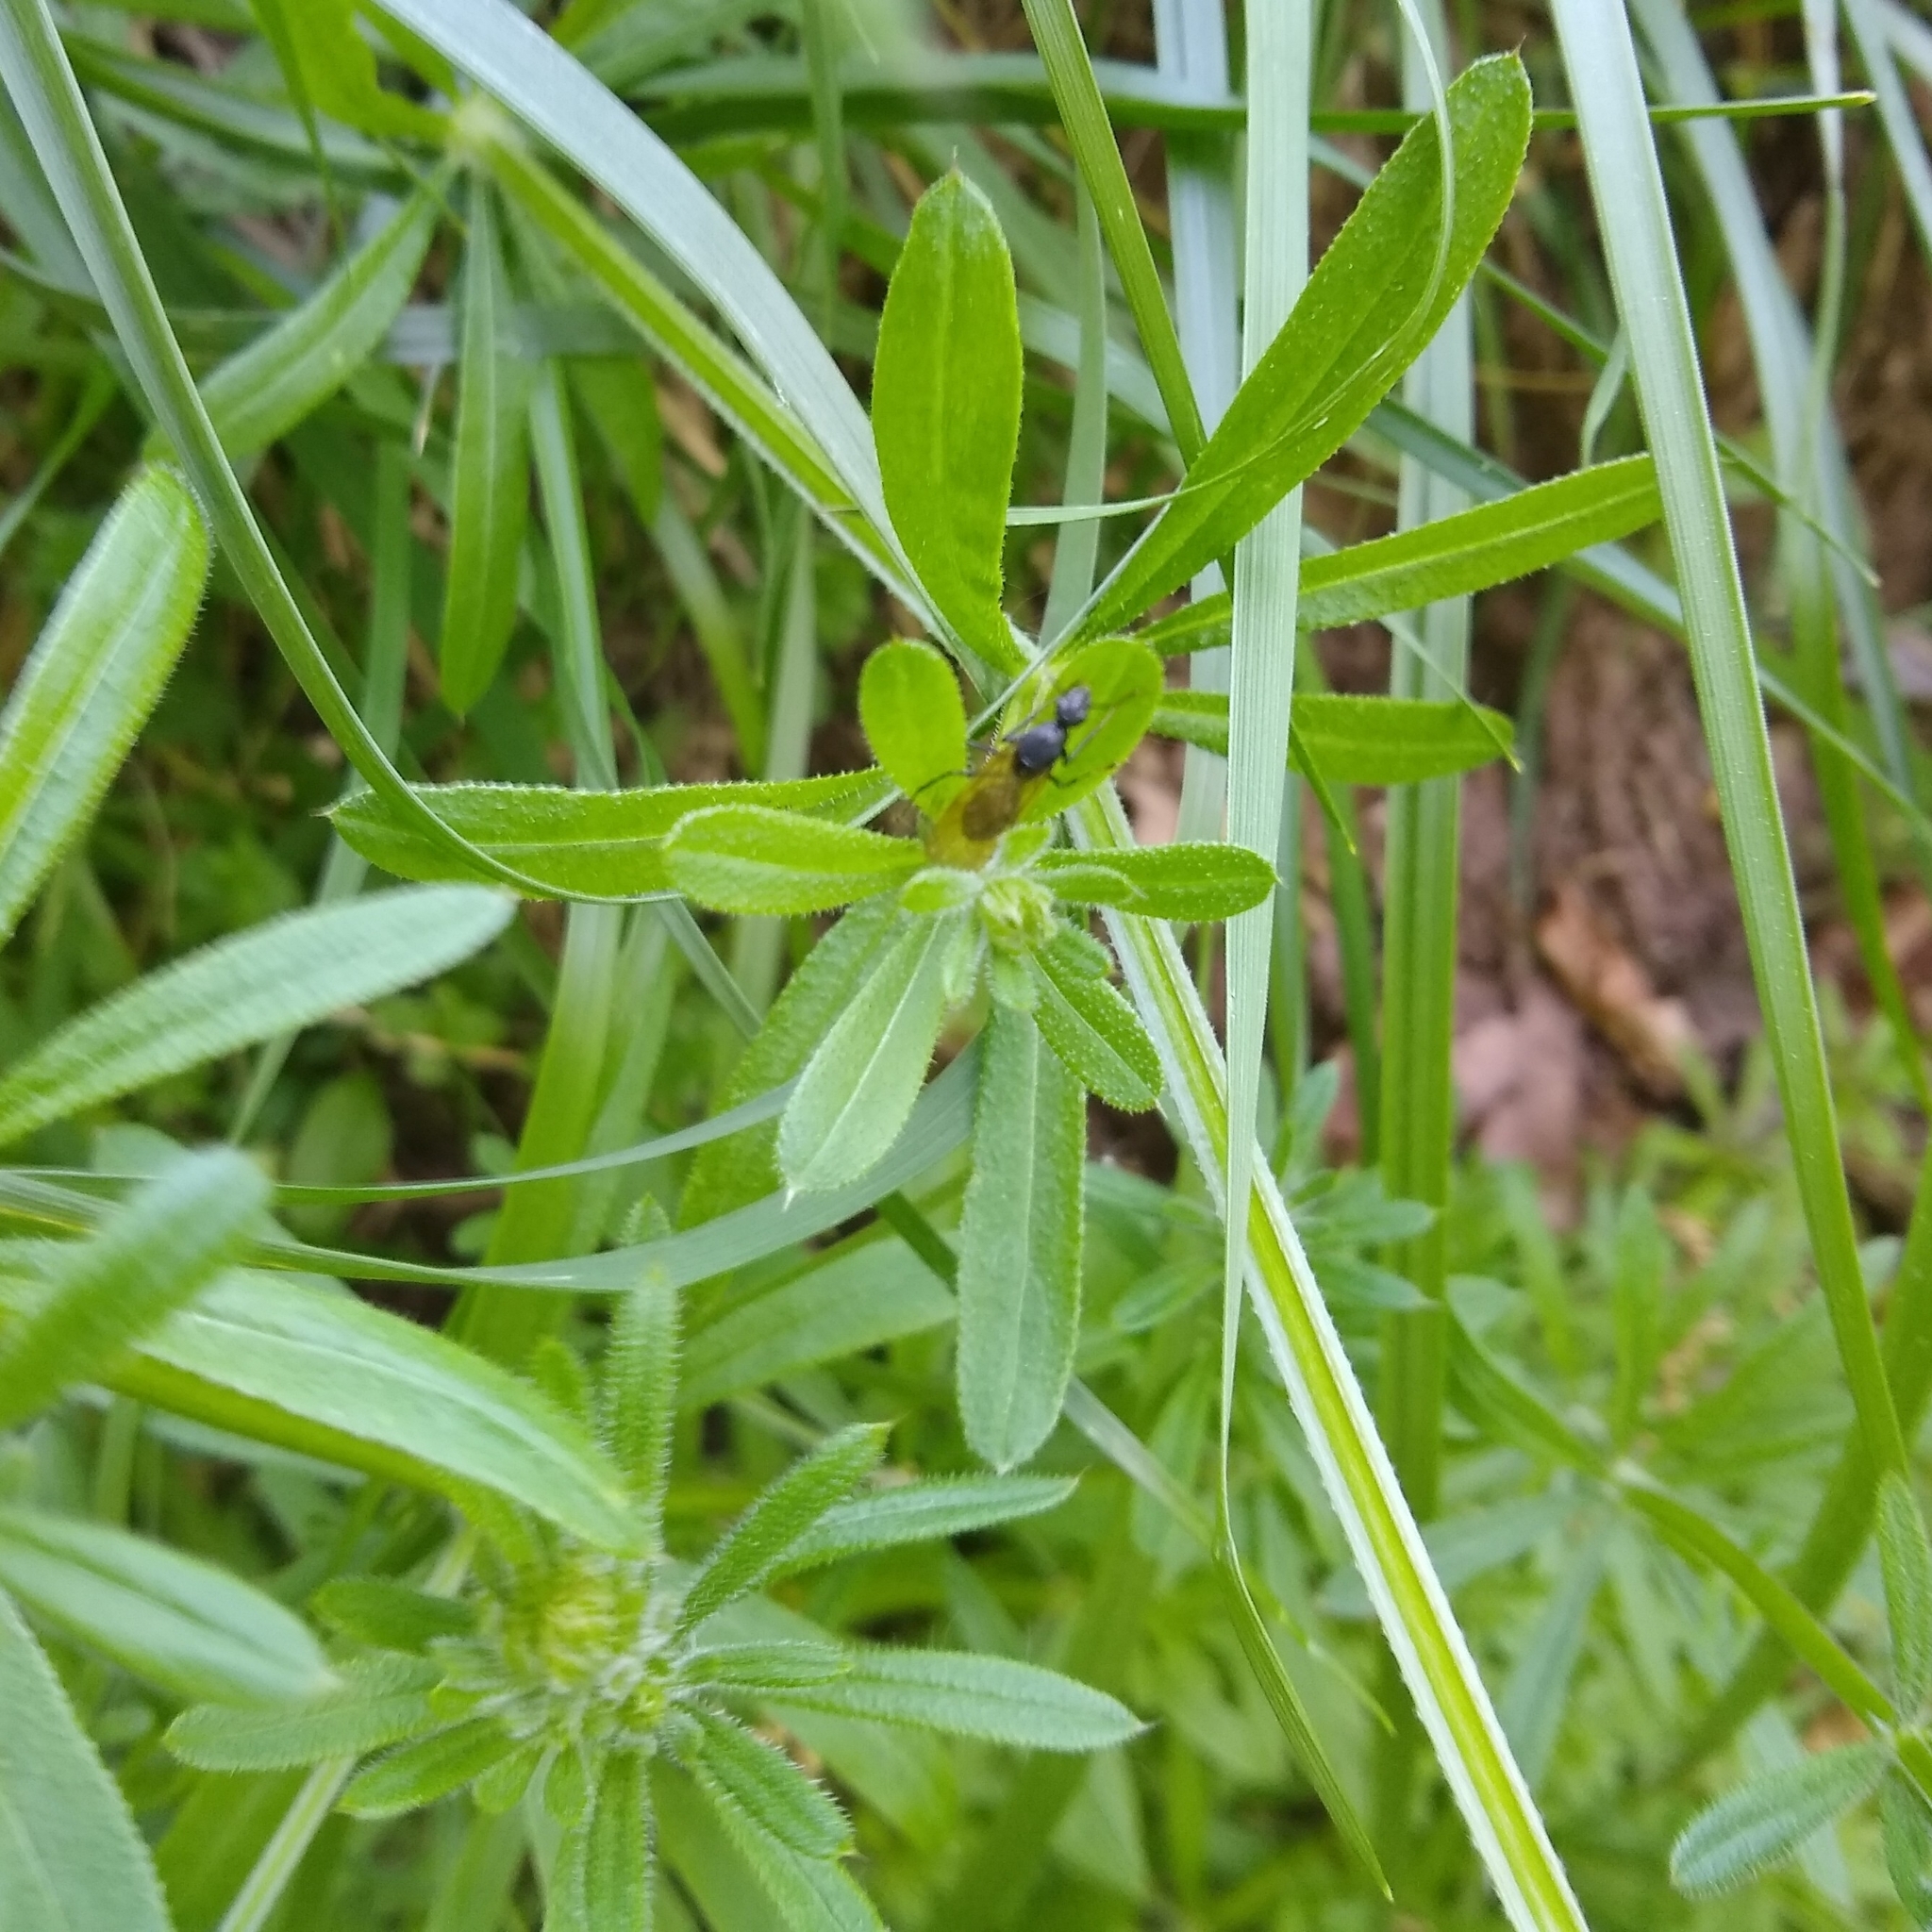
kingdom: Plantae
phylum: Tracheophyta
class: Magnoliopsida
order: Gentianales
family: Rubiaceae
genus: Galium
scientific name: Galium aparine
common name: Cleavers
